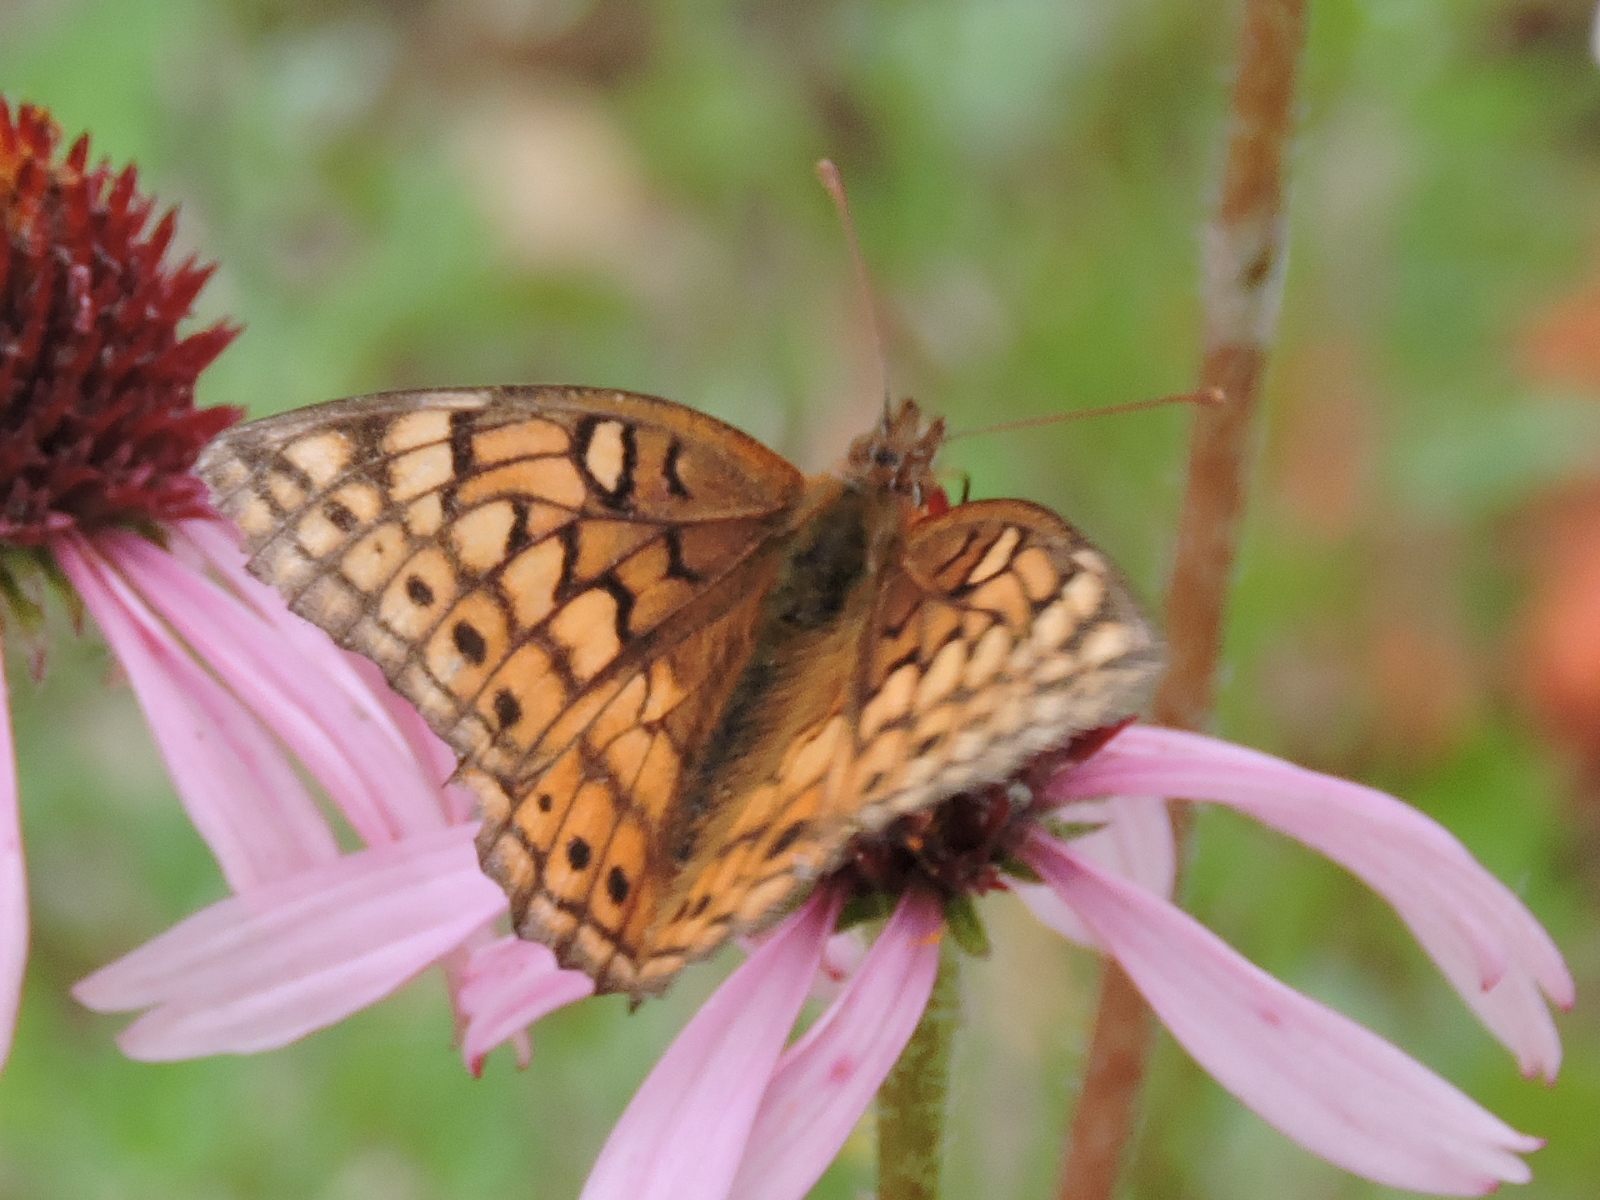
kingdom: Animalia
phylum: Arthropoda
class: Insecta
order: Lepidoptera
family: Nymphalidae
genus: Euptoieta
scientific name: Euptoieta claudia
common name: Variegated fritillary
